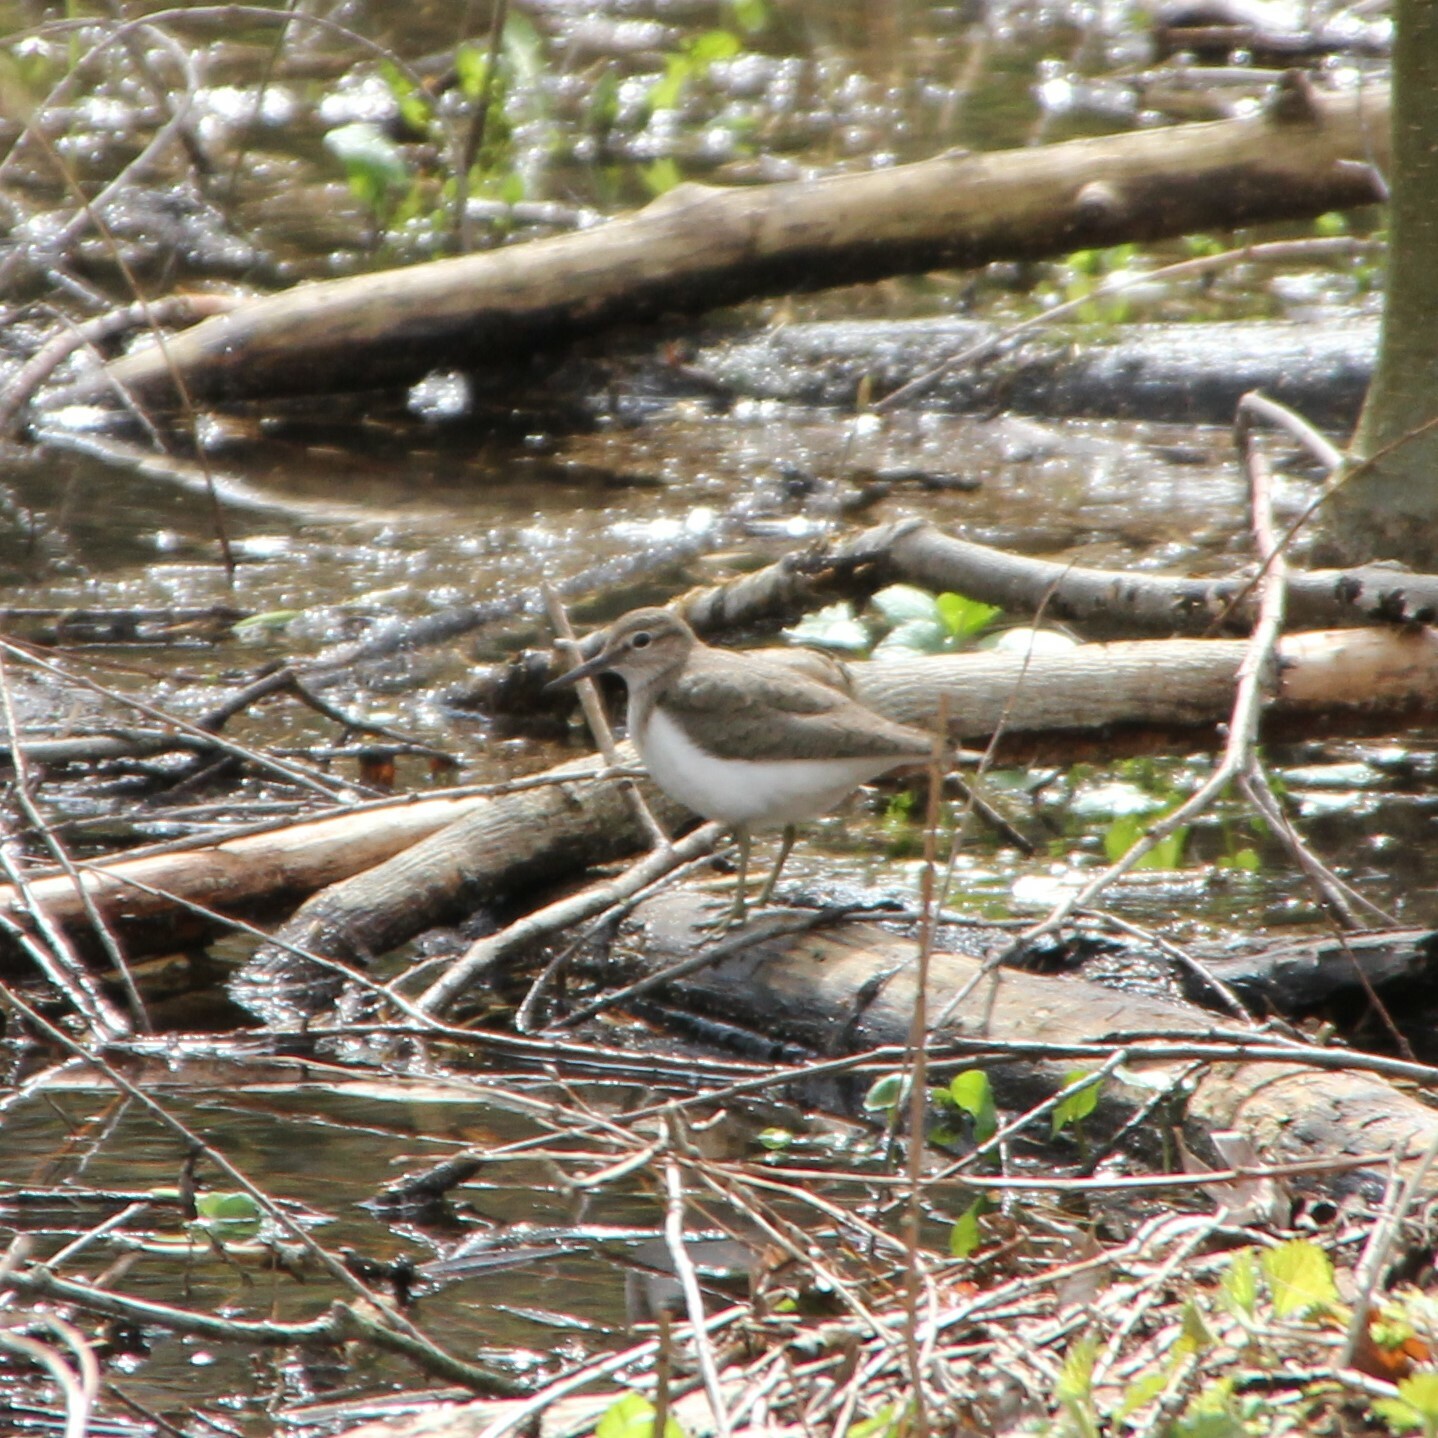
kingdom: Animalia
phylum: Chordata
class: Aves
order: Charadriiformes
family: Scolopacidae
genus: Actitis
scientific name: Actitis hypoleucos
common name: Common sandpiper
